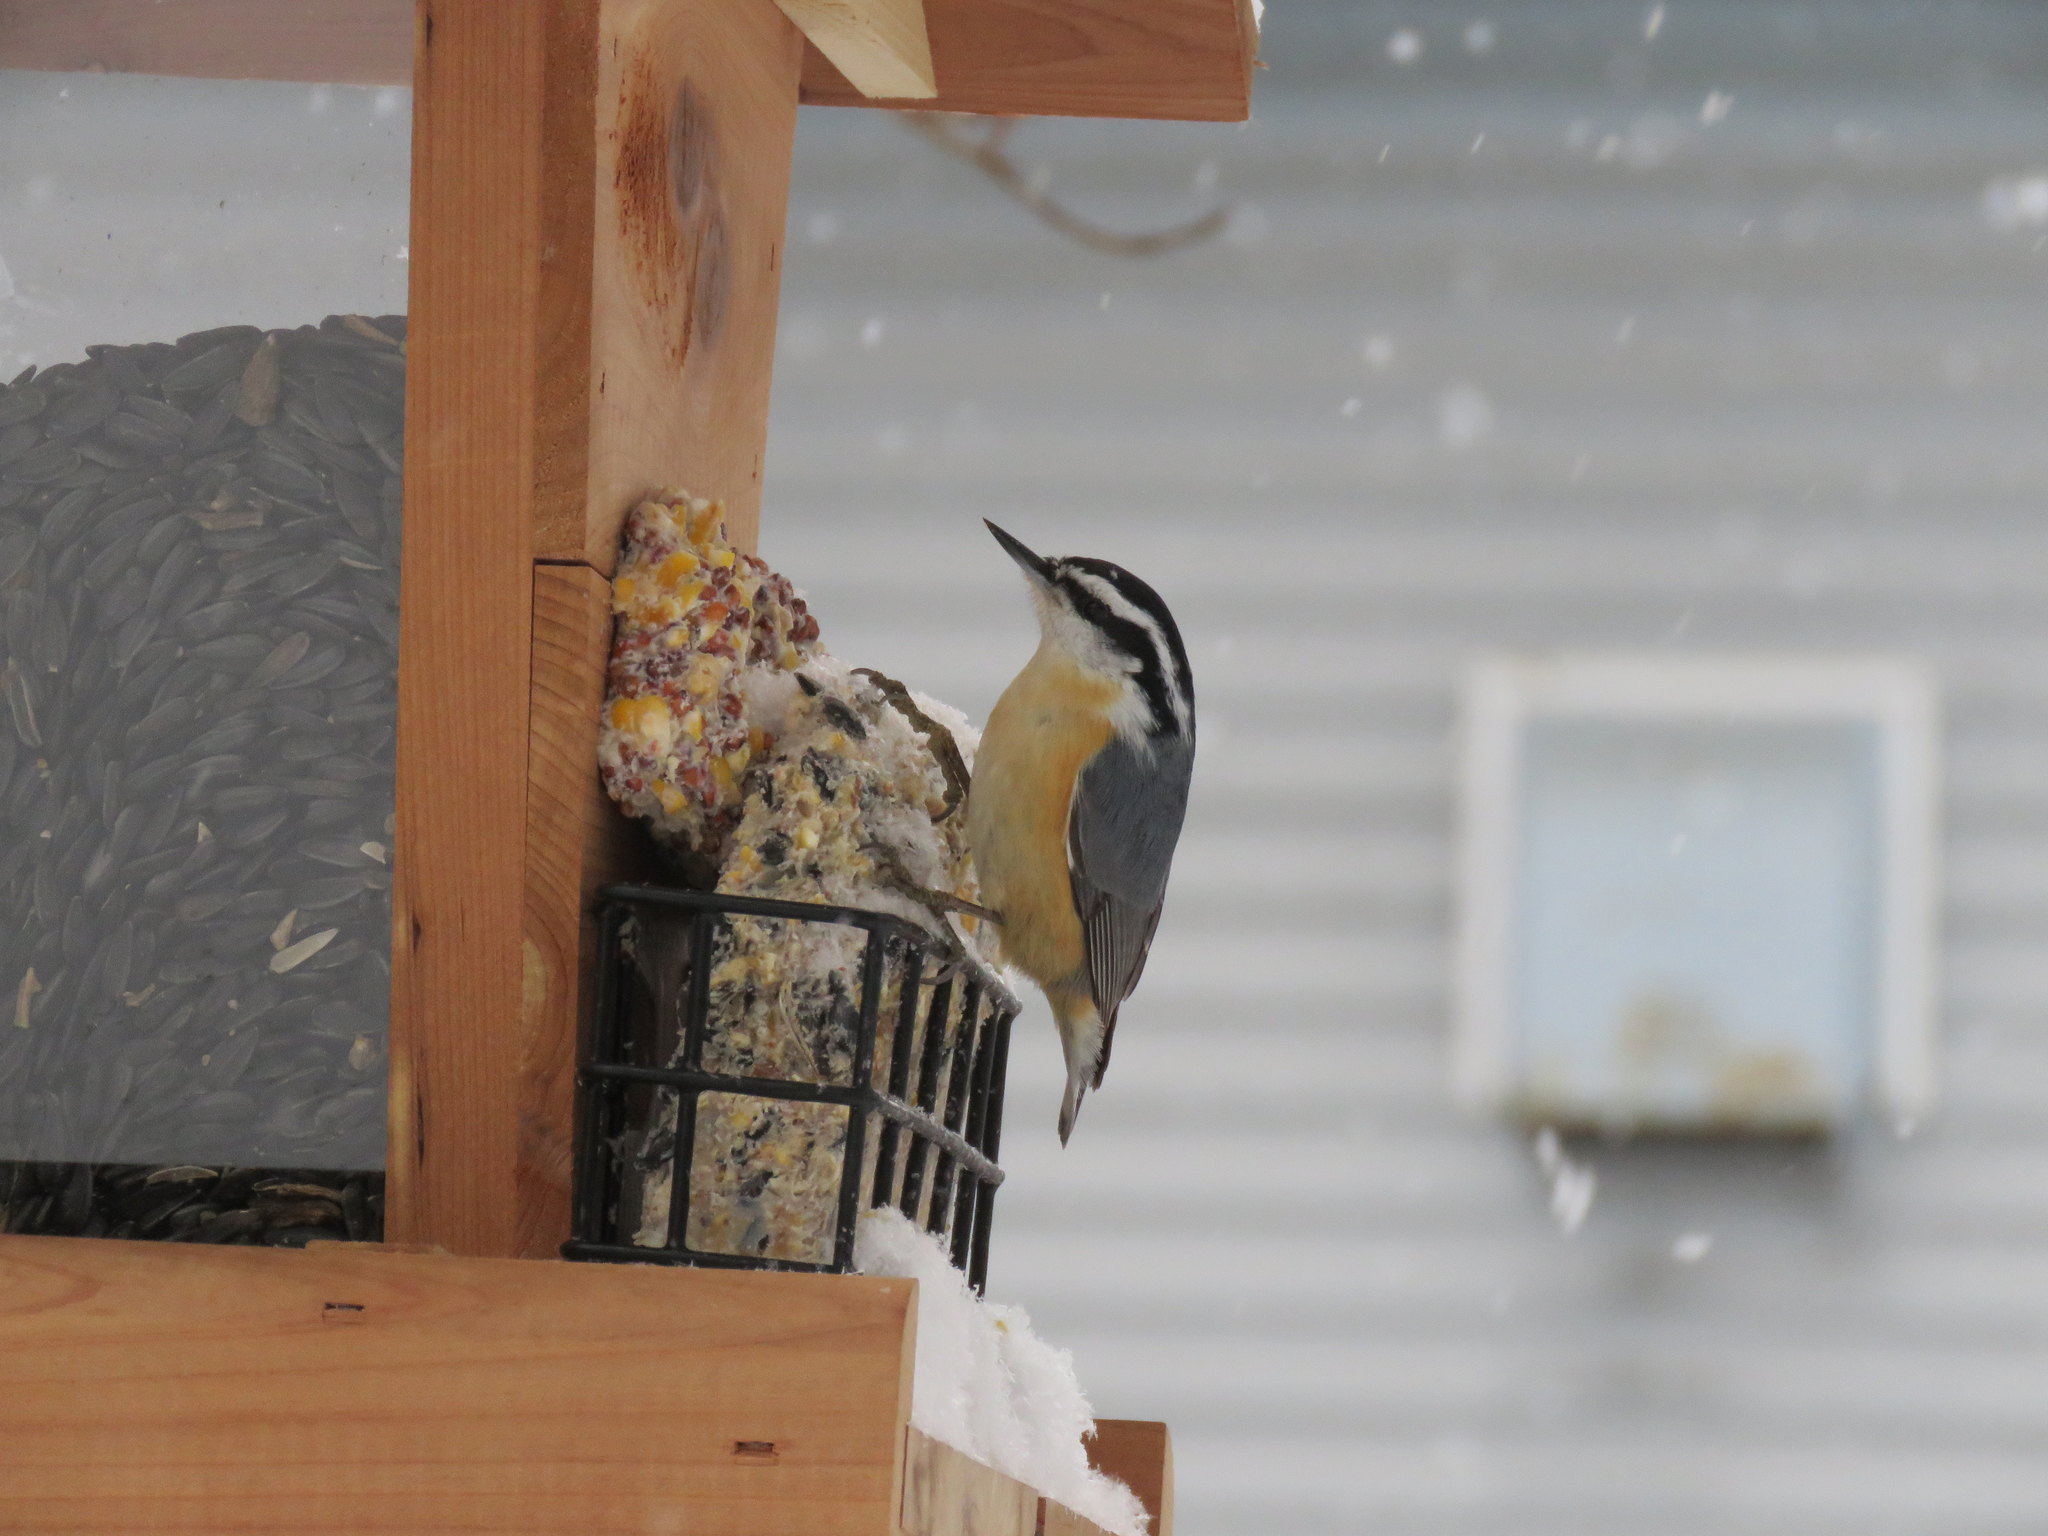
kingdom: Animalia
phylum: Chordata
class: Aves
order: Passeriformes
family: Sittidae
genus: Sitta
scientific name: Sitta canadensis
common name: Red-breasted nuthatch
